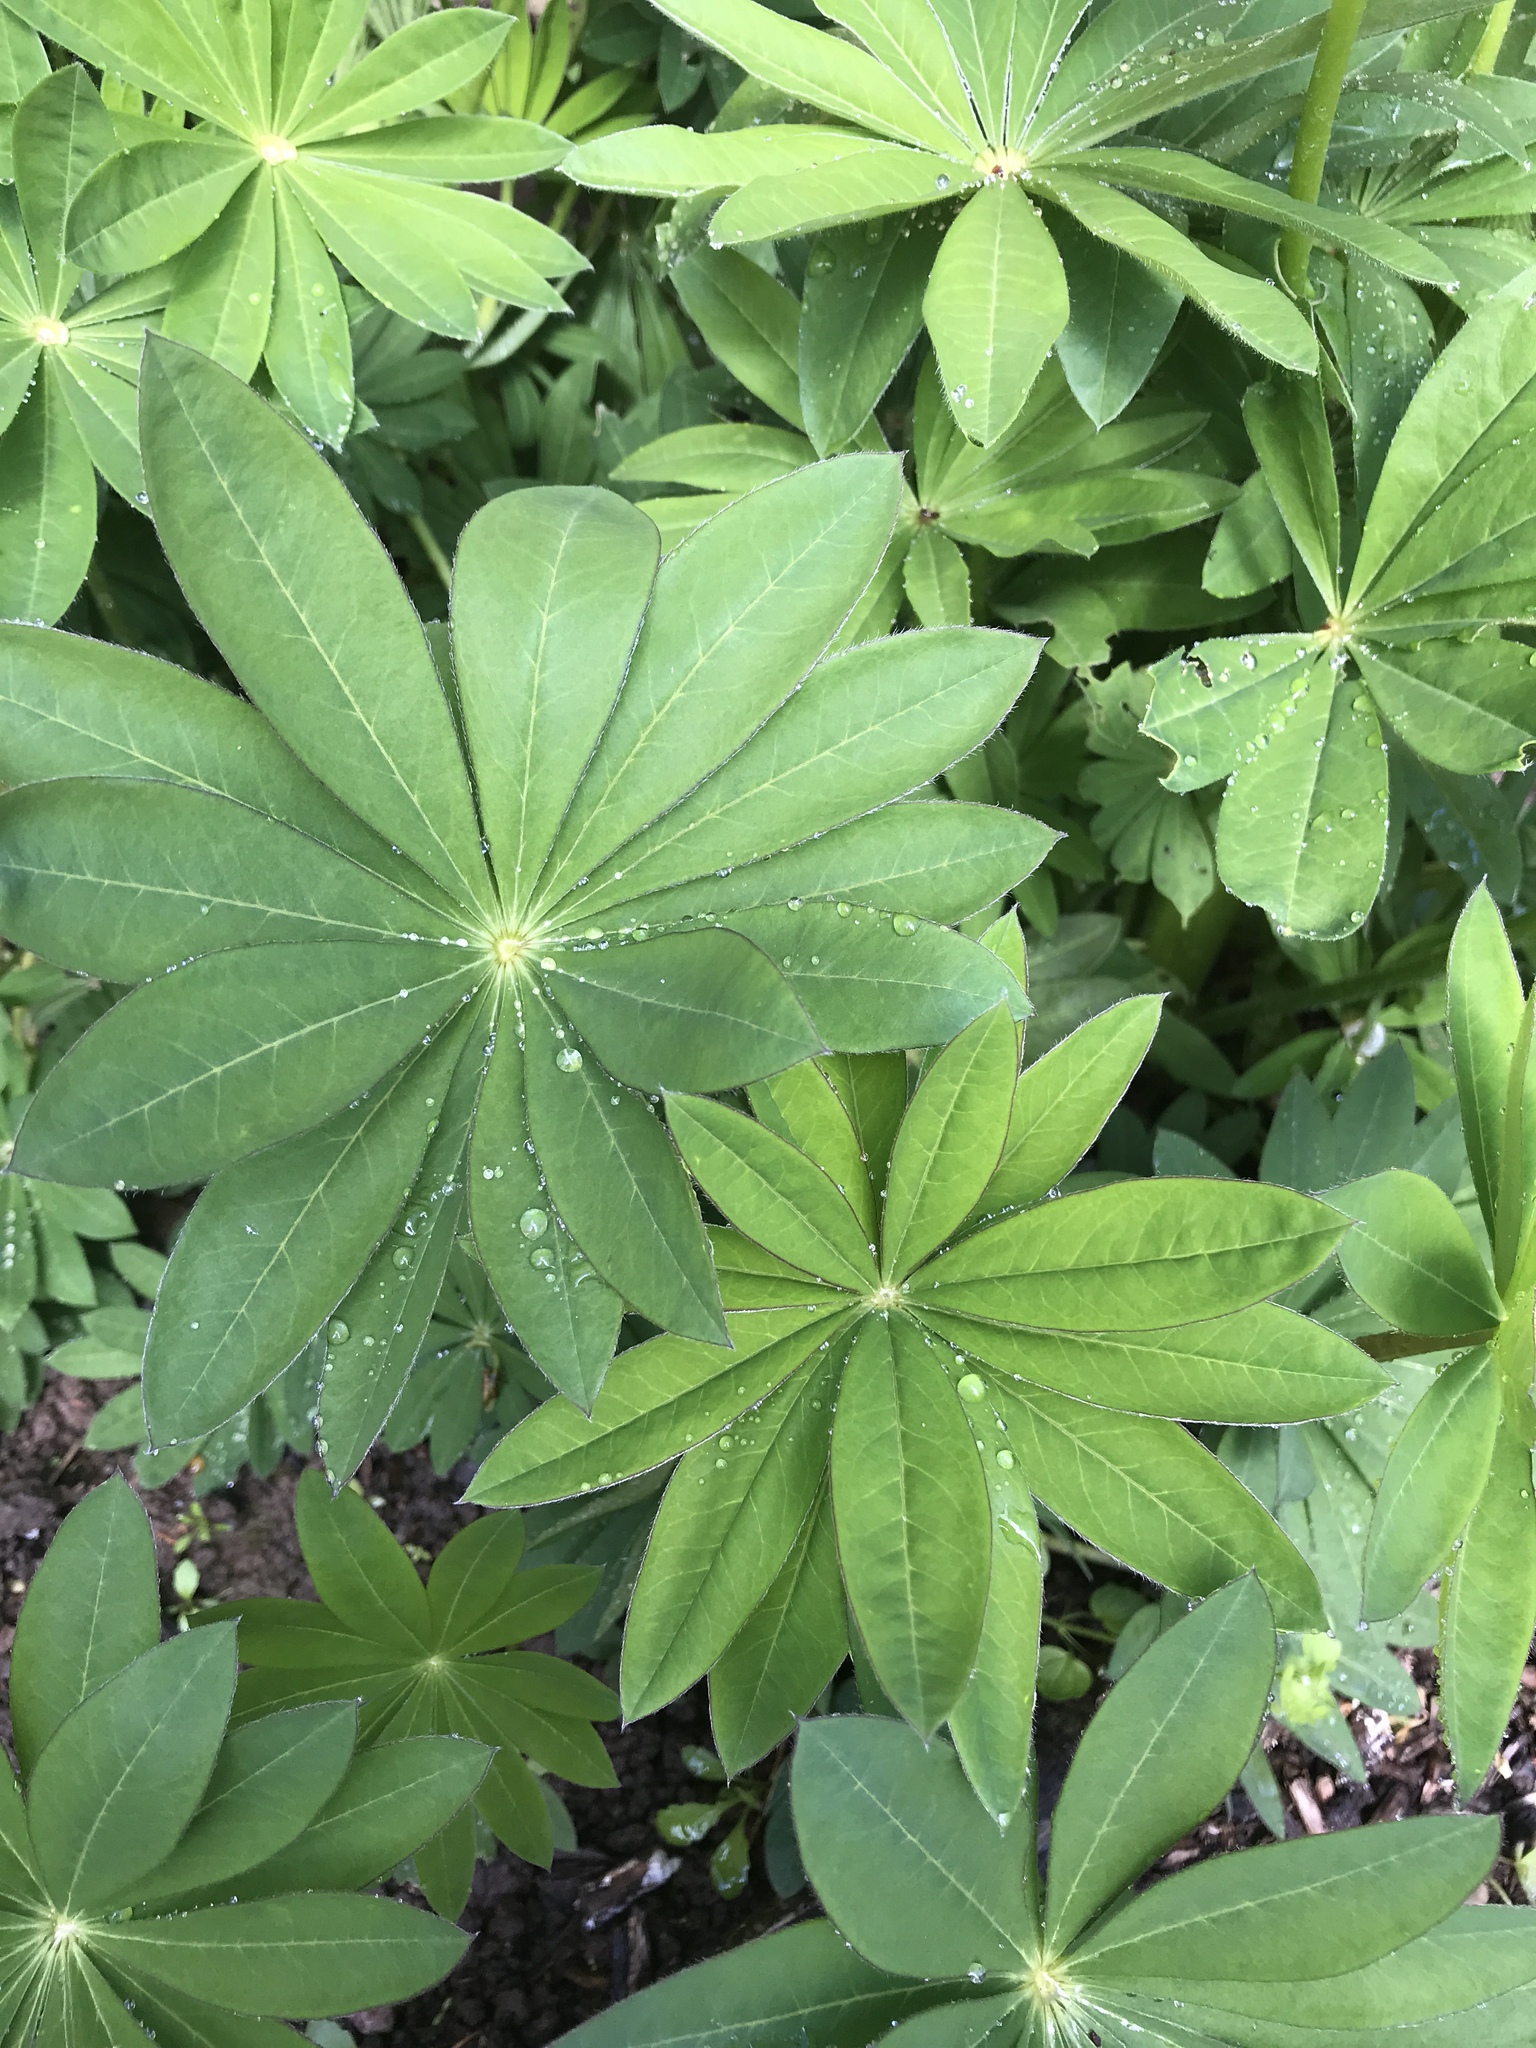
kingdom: Plantae
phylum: Tracheophyta
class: Magnoliopsida
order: Fabales
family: Fabaceae
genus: Lupinus
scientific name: Lupinus polyphyllus
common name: Garden lupin
